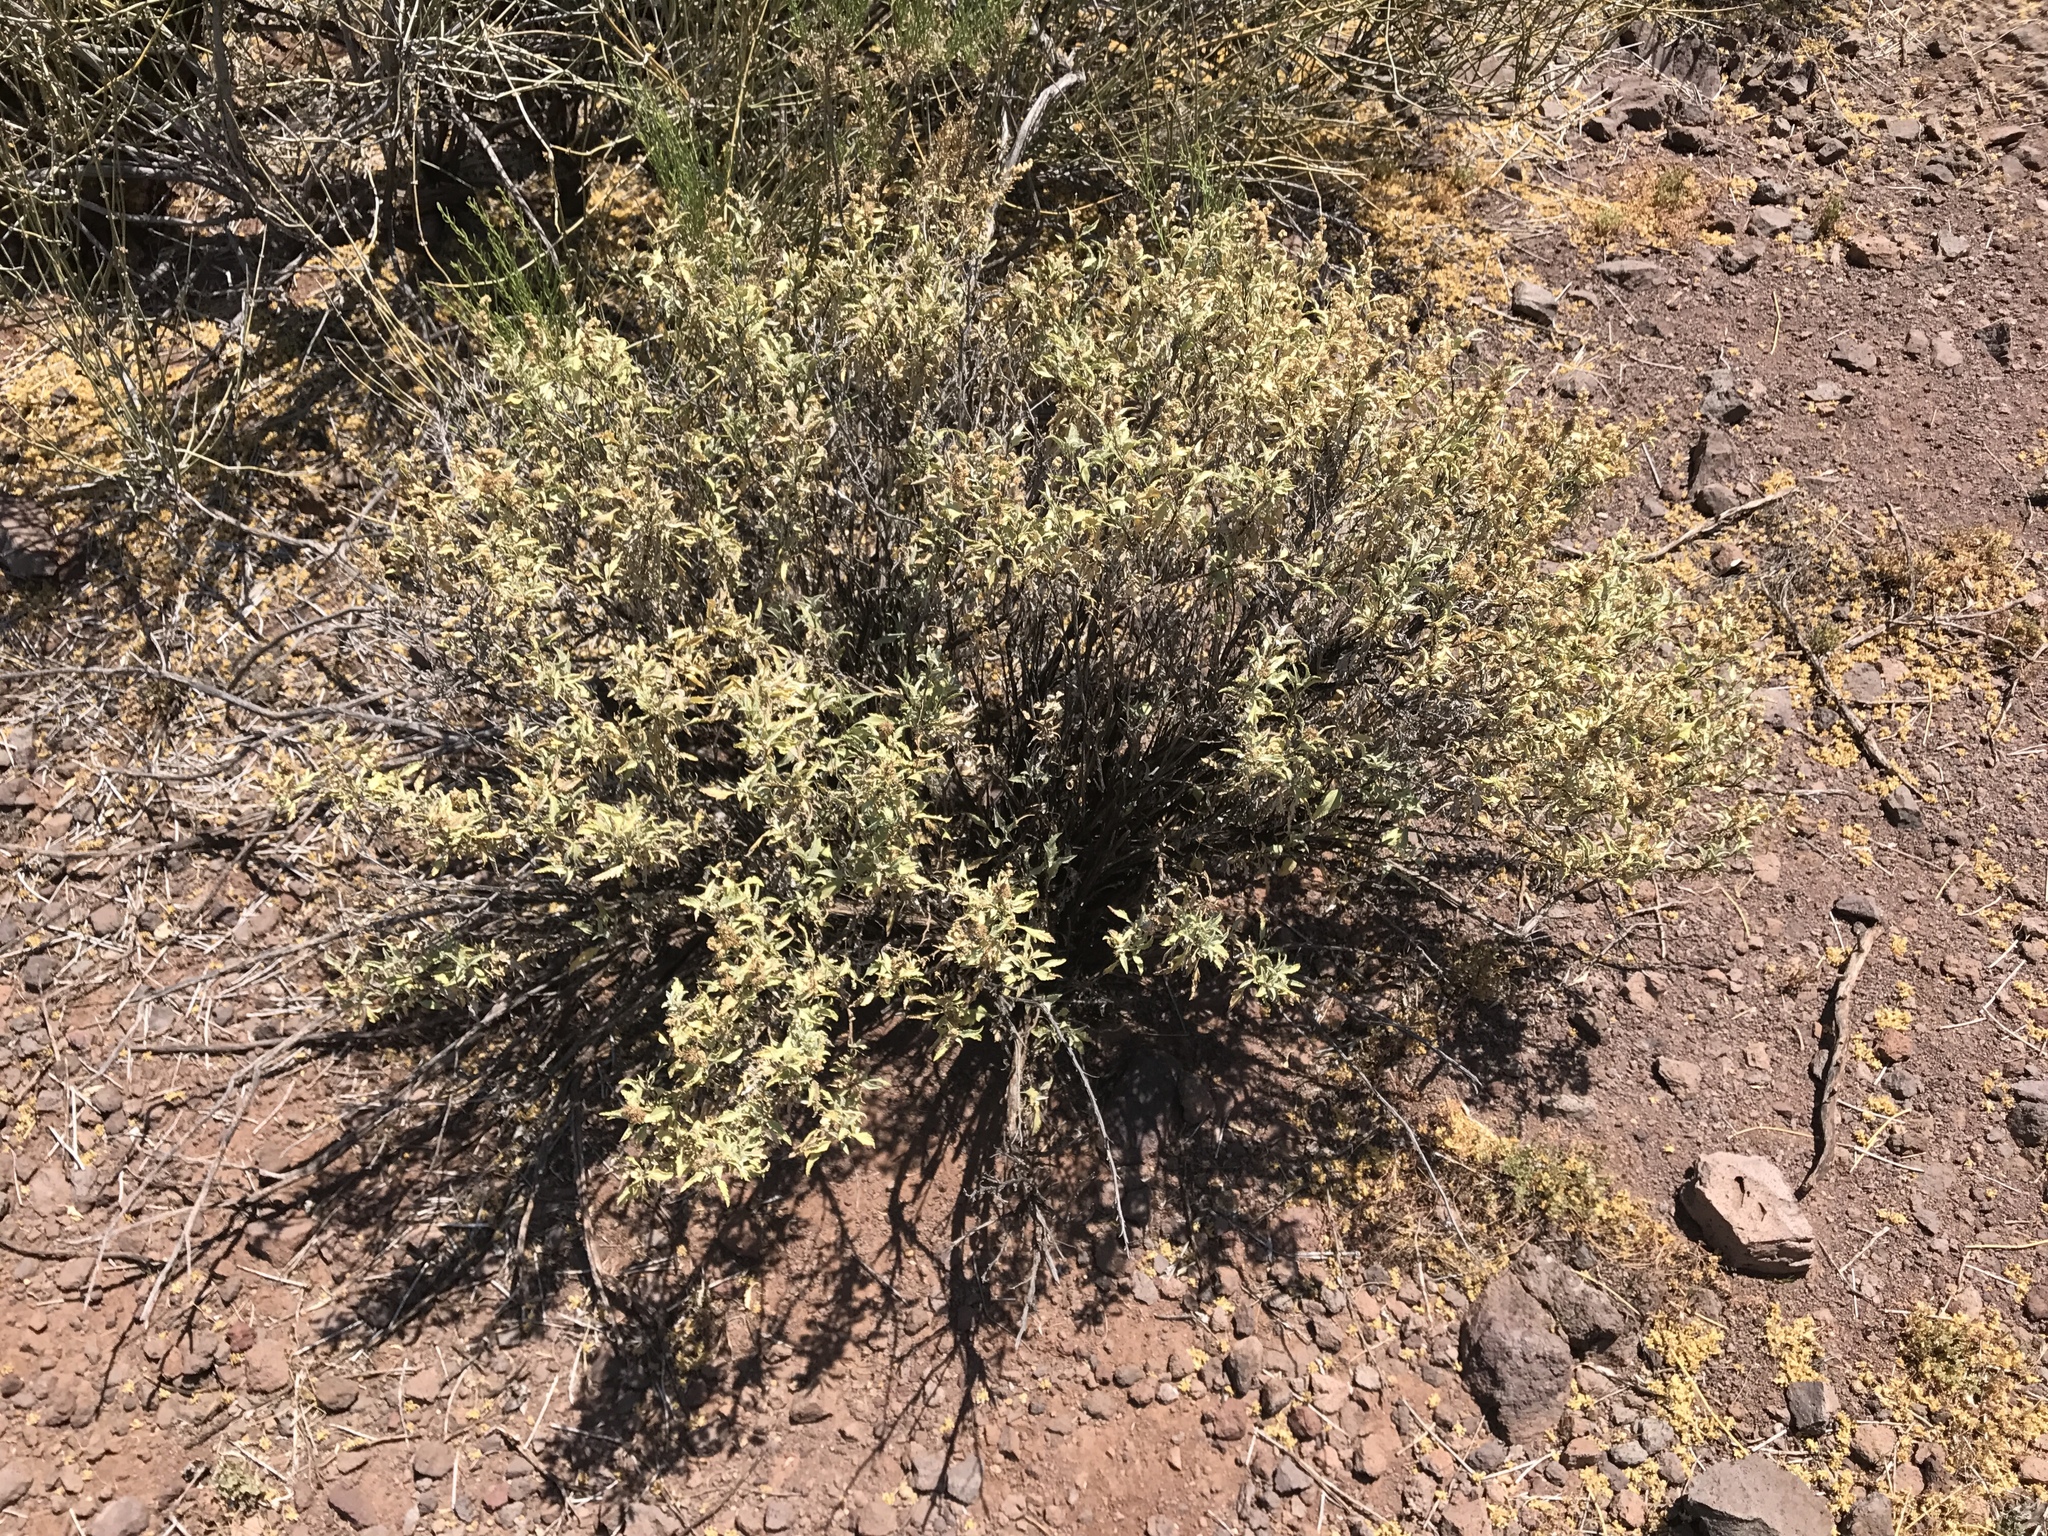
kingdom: Plantae
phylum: Tracheophyta
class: Magnoliopsida
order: Asterales
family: Asteraceae
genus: Ambrosia
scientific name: Ambrosia deltoidea
